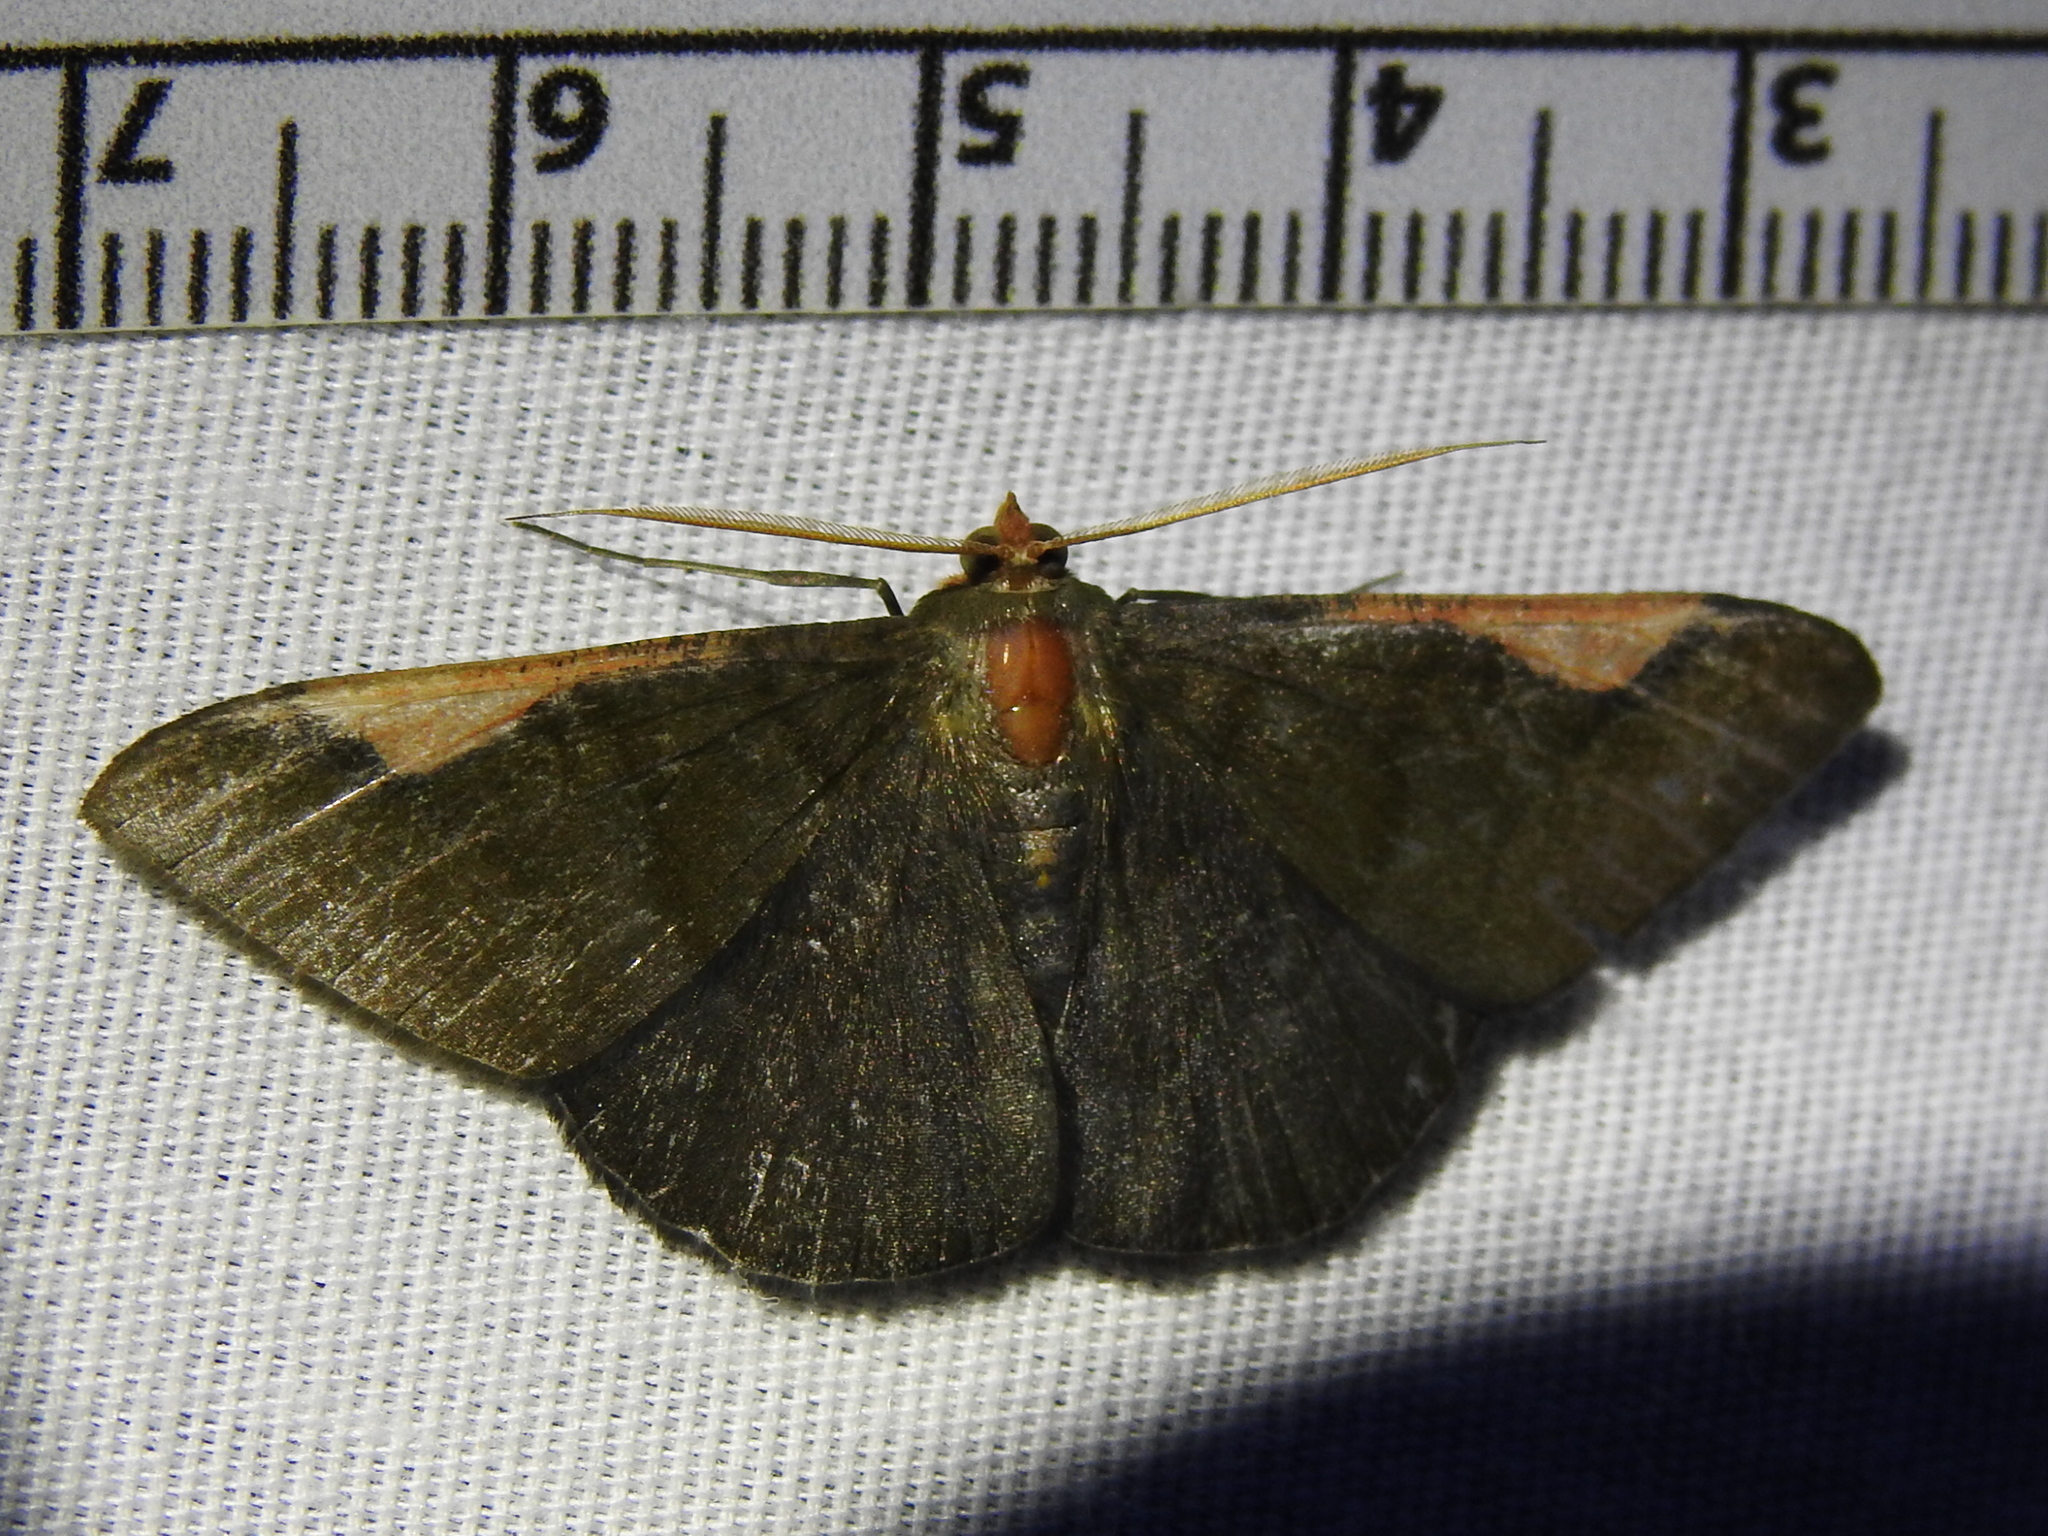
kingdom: Animalia
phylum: Arthropoda
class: Insecta
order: Lepidoptera
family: Geometridae
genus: Sphacelodes
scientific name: Sphacelodes vulneraria
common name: Looper moth
